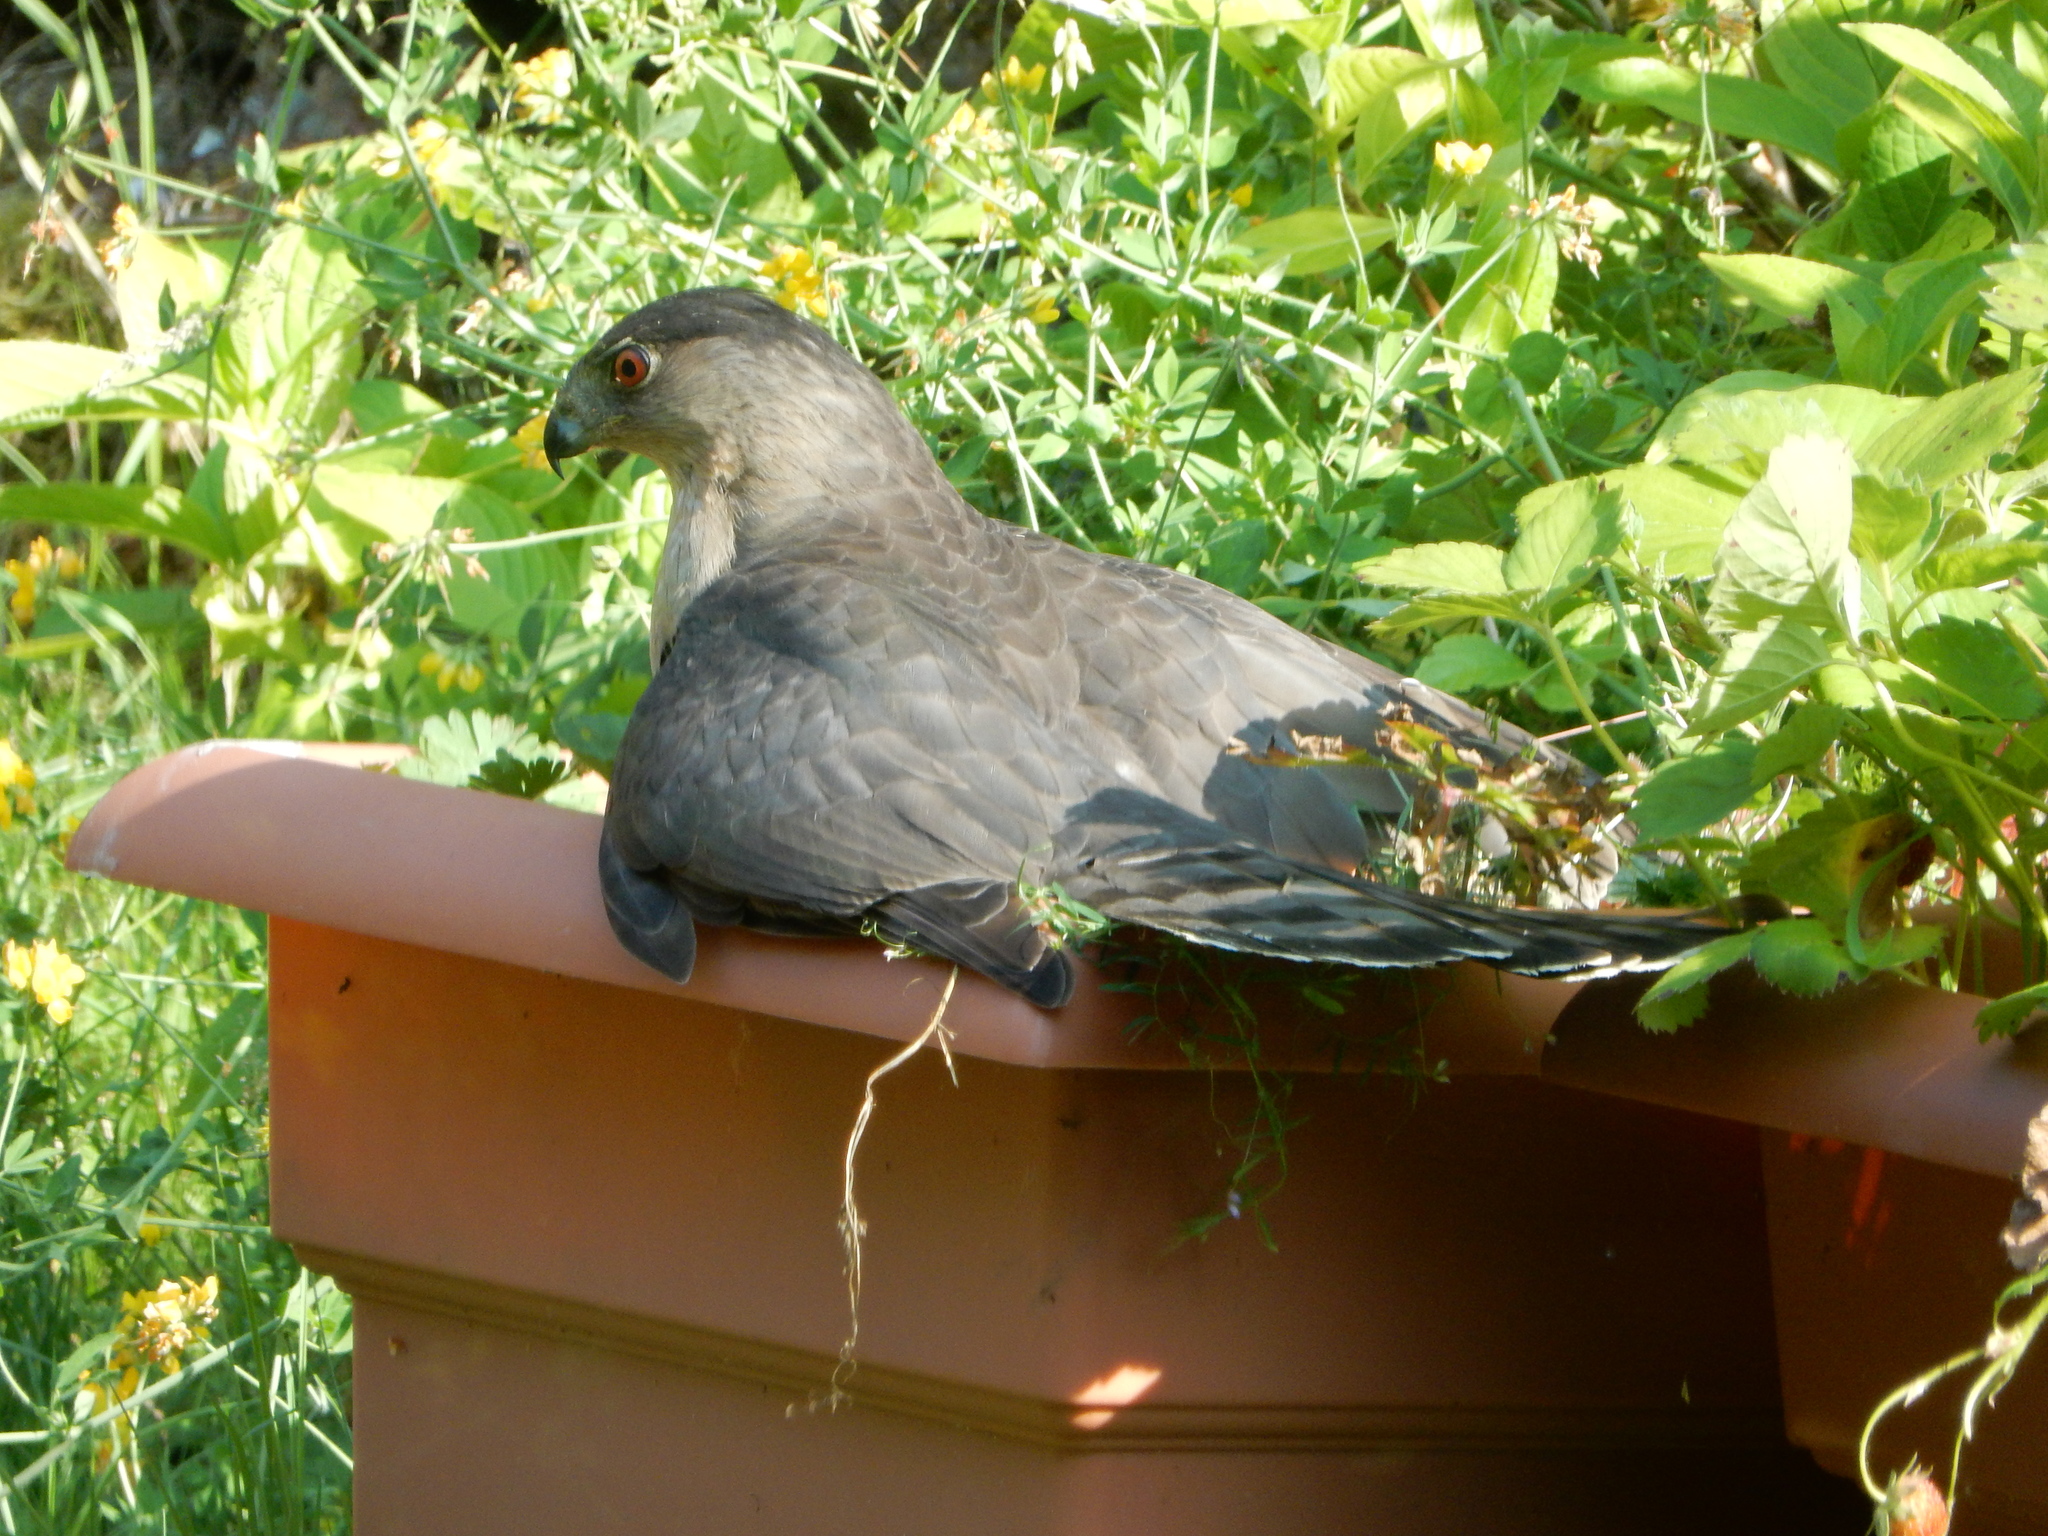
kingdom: Animalia
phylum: Chordata
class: Aves
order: Accipitriformes
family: Accipitridae
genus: Accipiter
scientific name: Accipiter cooperii
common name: Cooper's hawk
